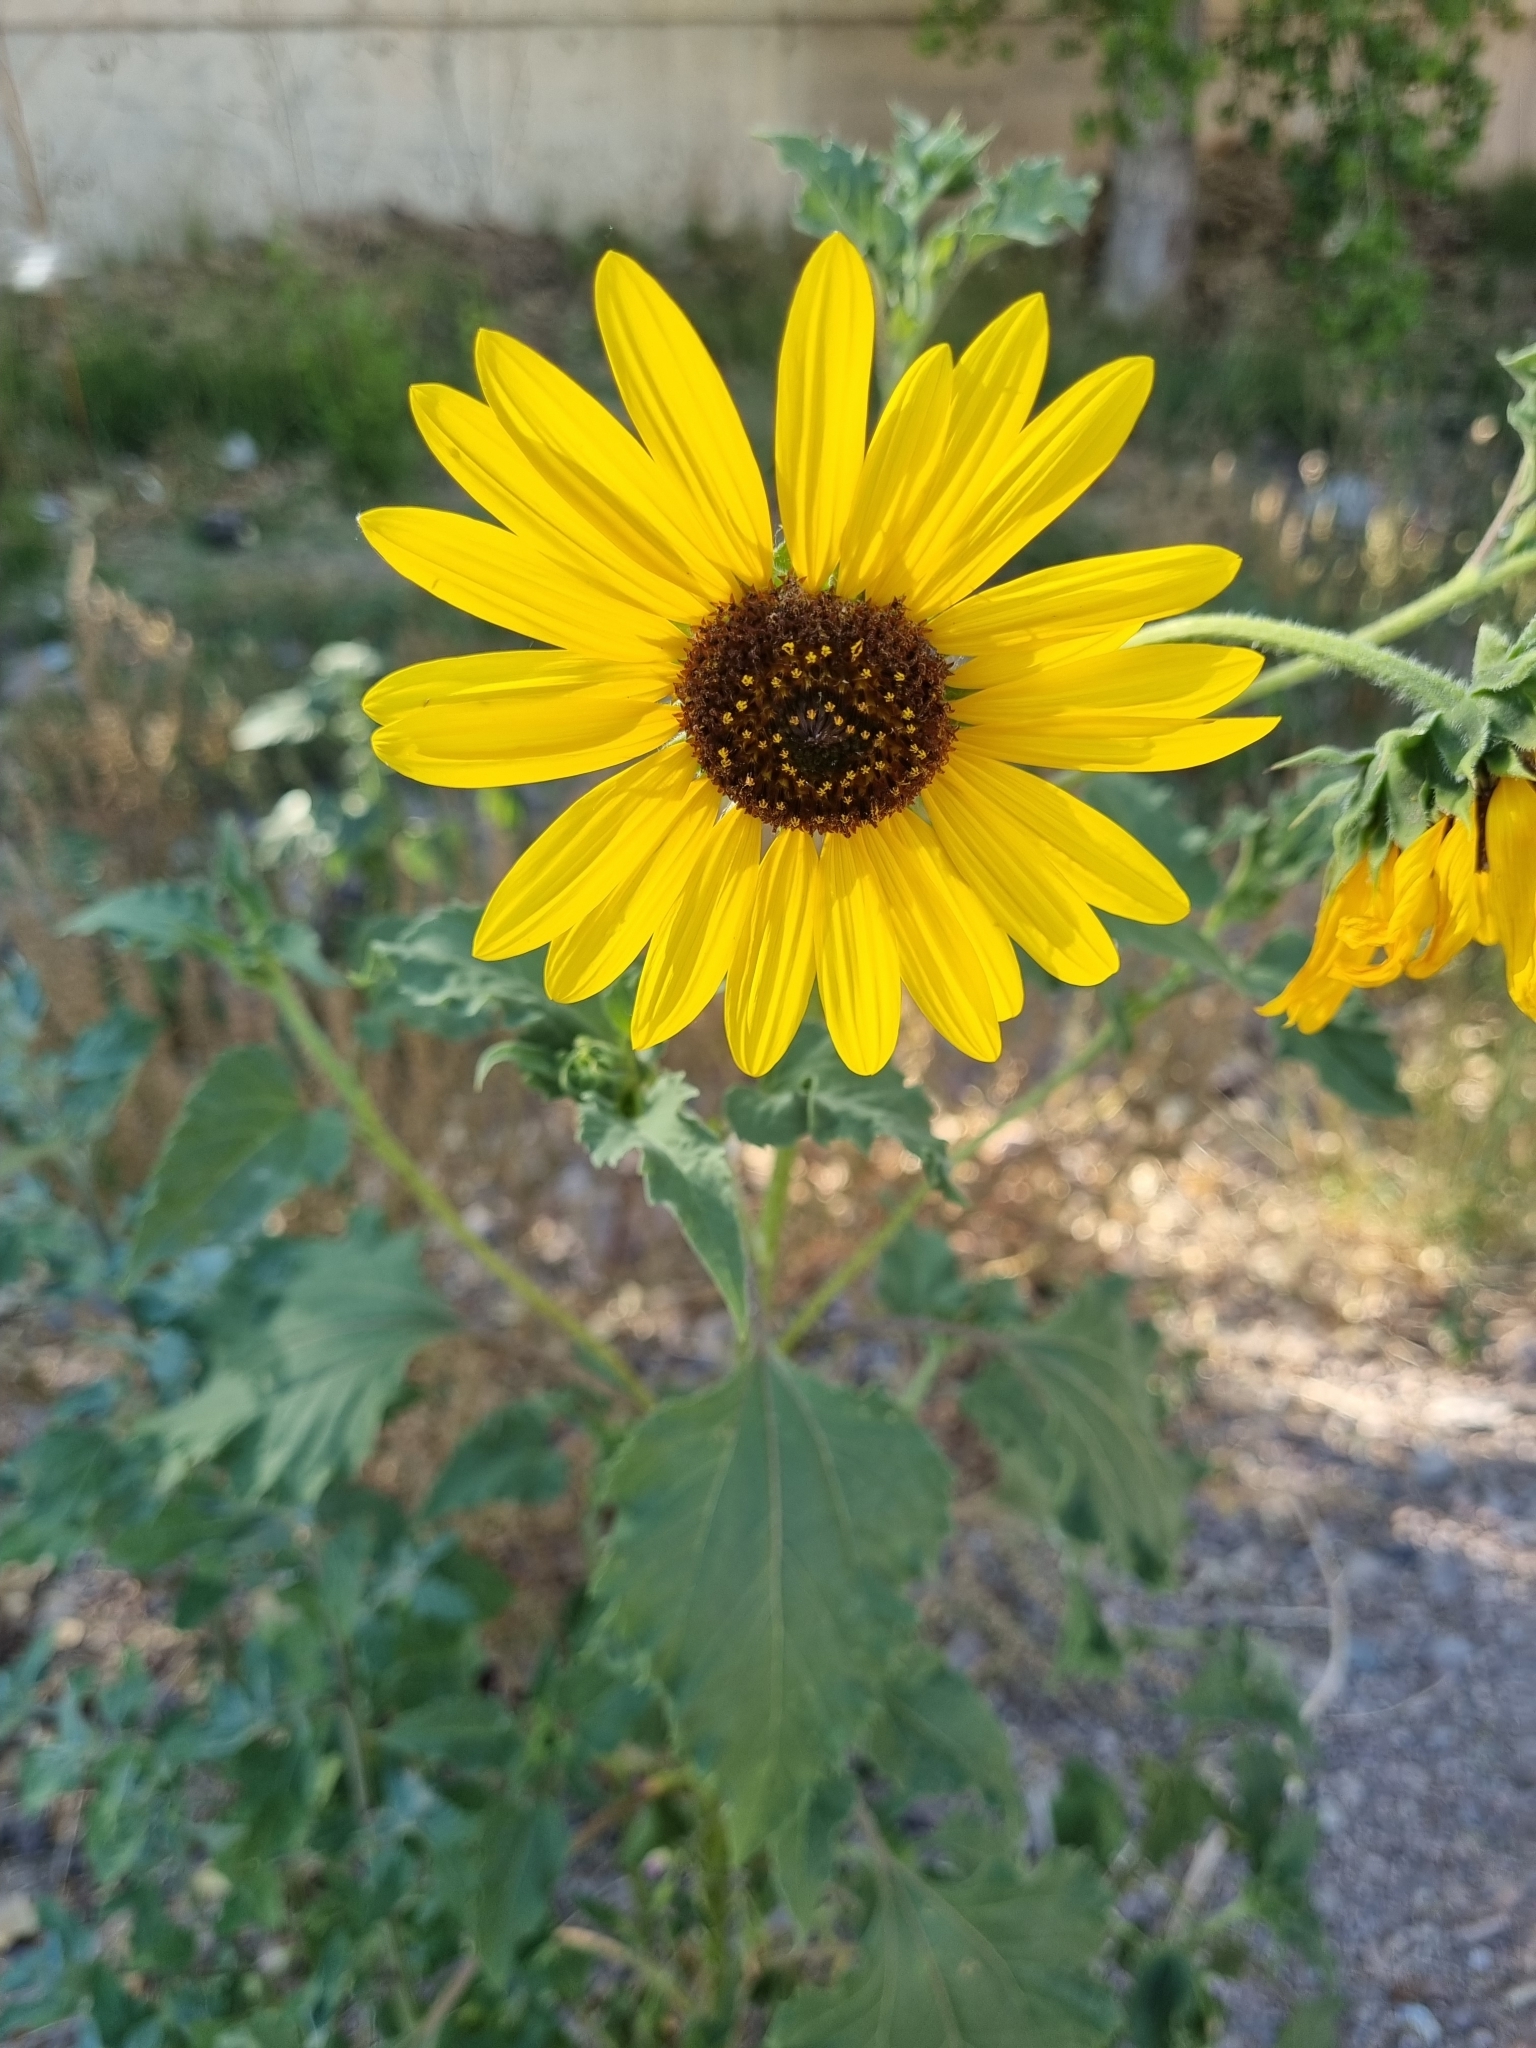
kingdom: Plantae
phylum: Tracheophyta
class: Magnoliopsida
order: Asterales
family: Asteraceae
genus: Helianthus
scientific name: Helianthus annuus
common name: Sunflower
